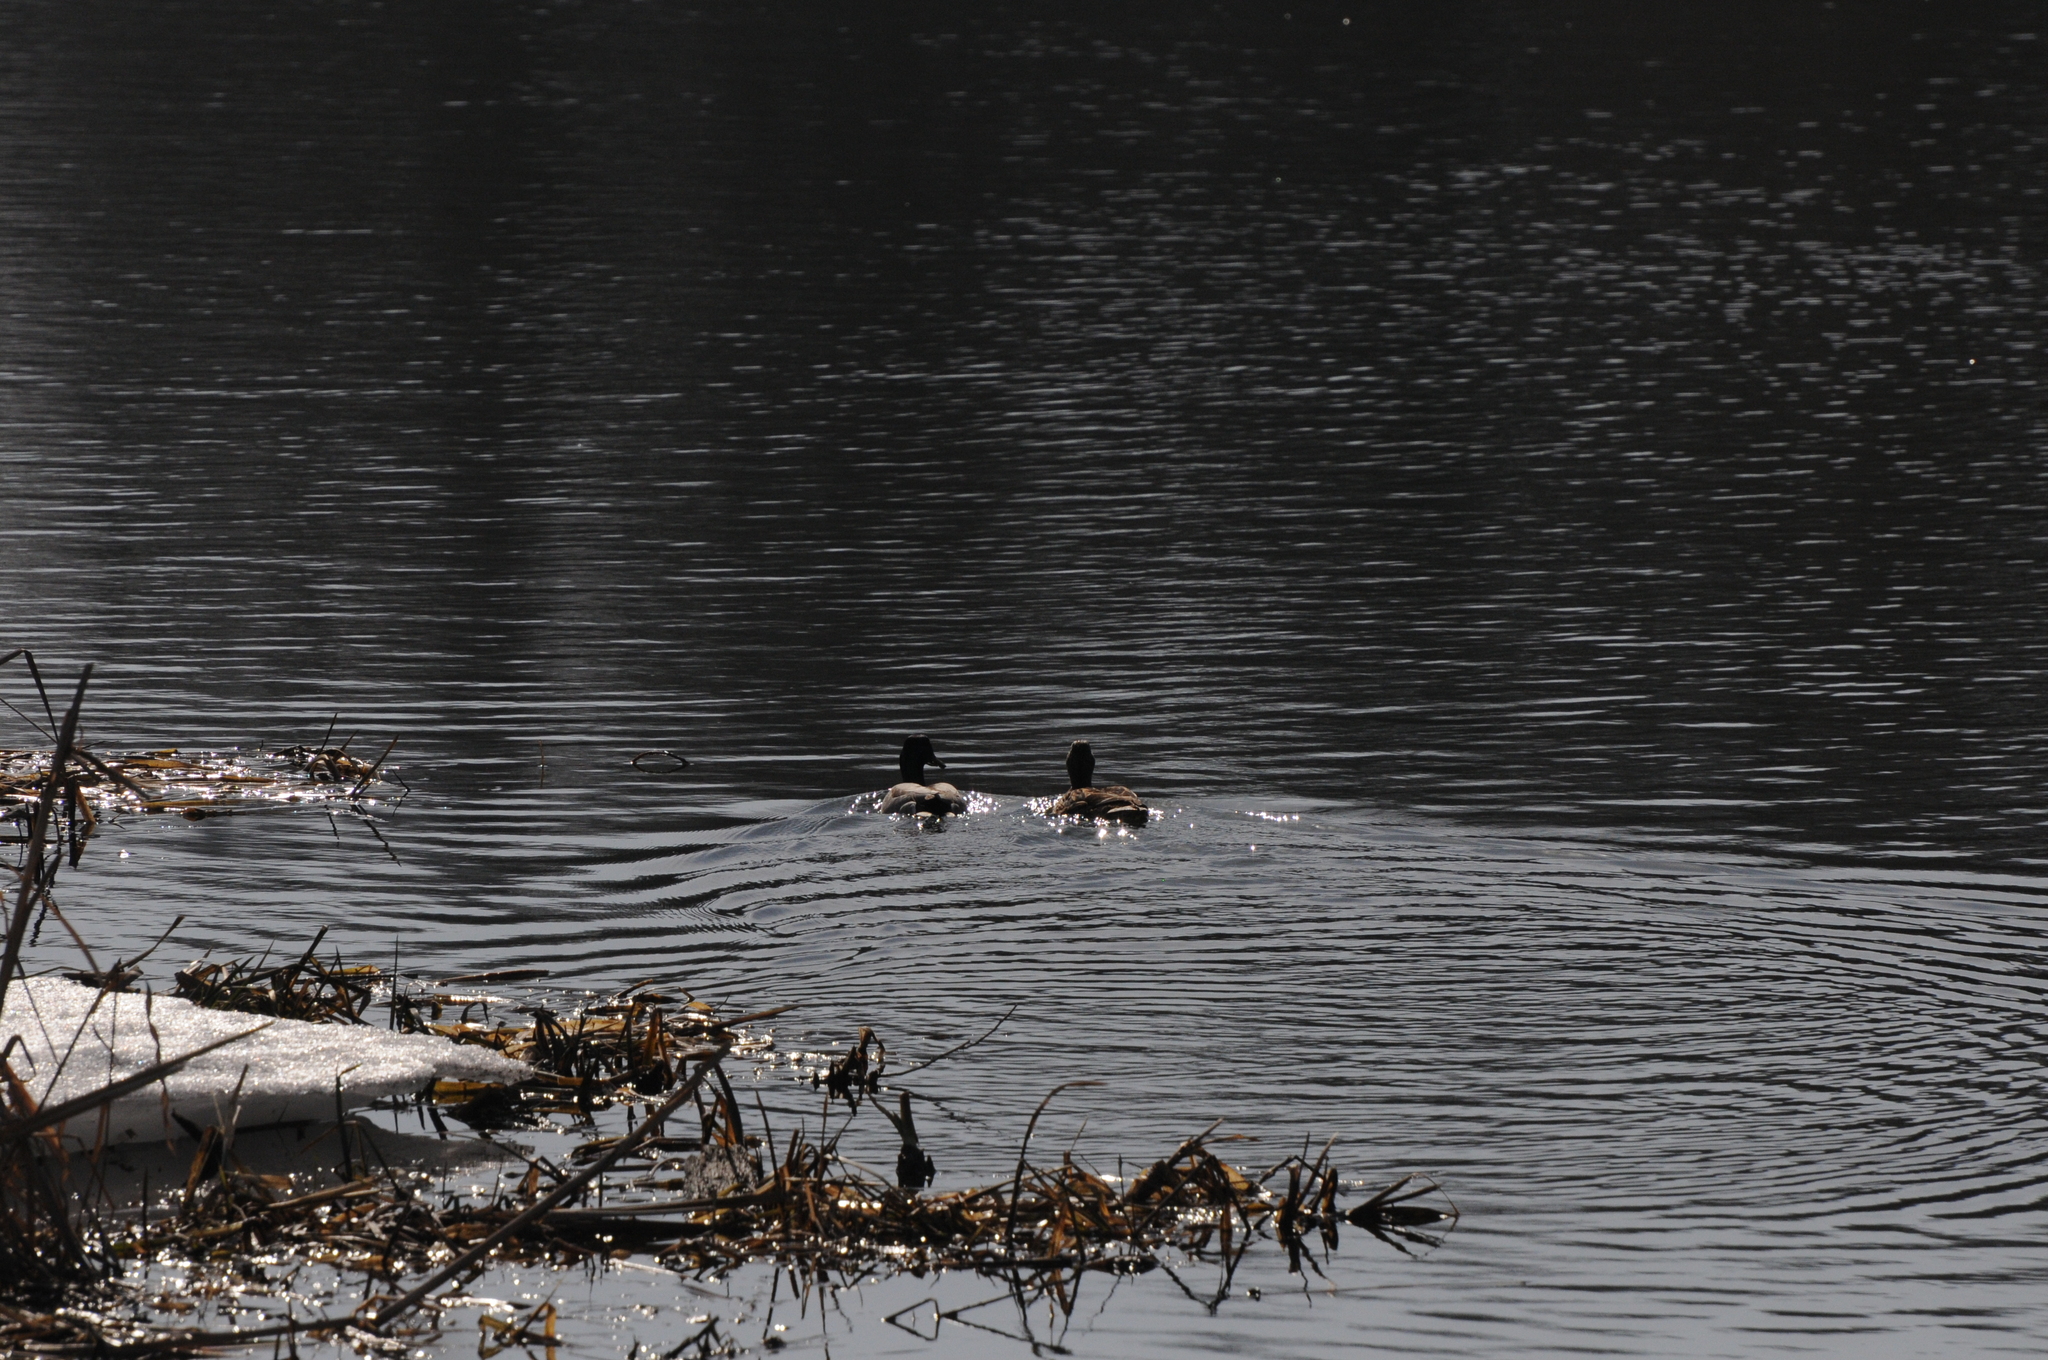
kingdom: Animalia
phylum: Chordata
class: Aves
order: Anseriformes
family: Anatidae
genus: Anas
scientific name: Anas platyrhynchos
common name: Mallard
